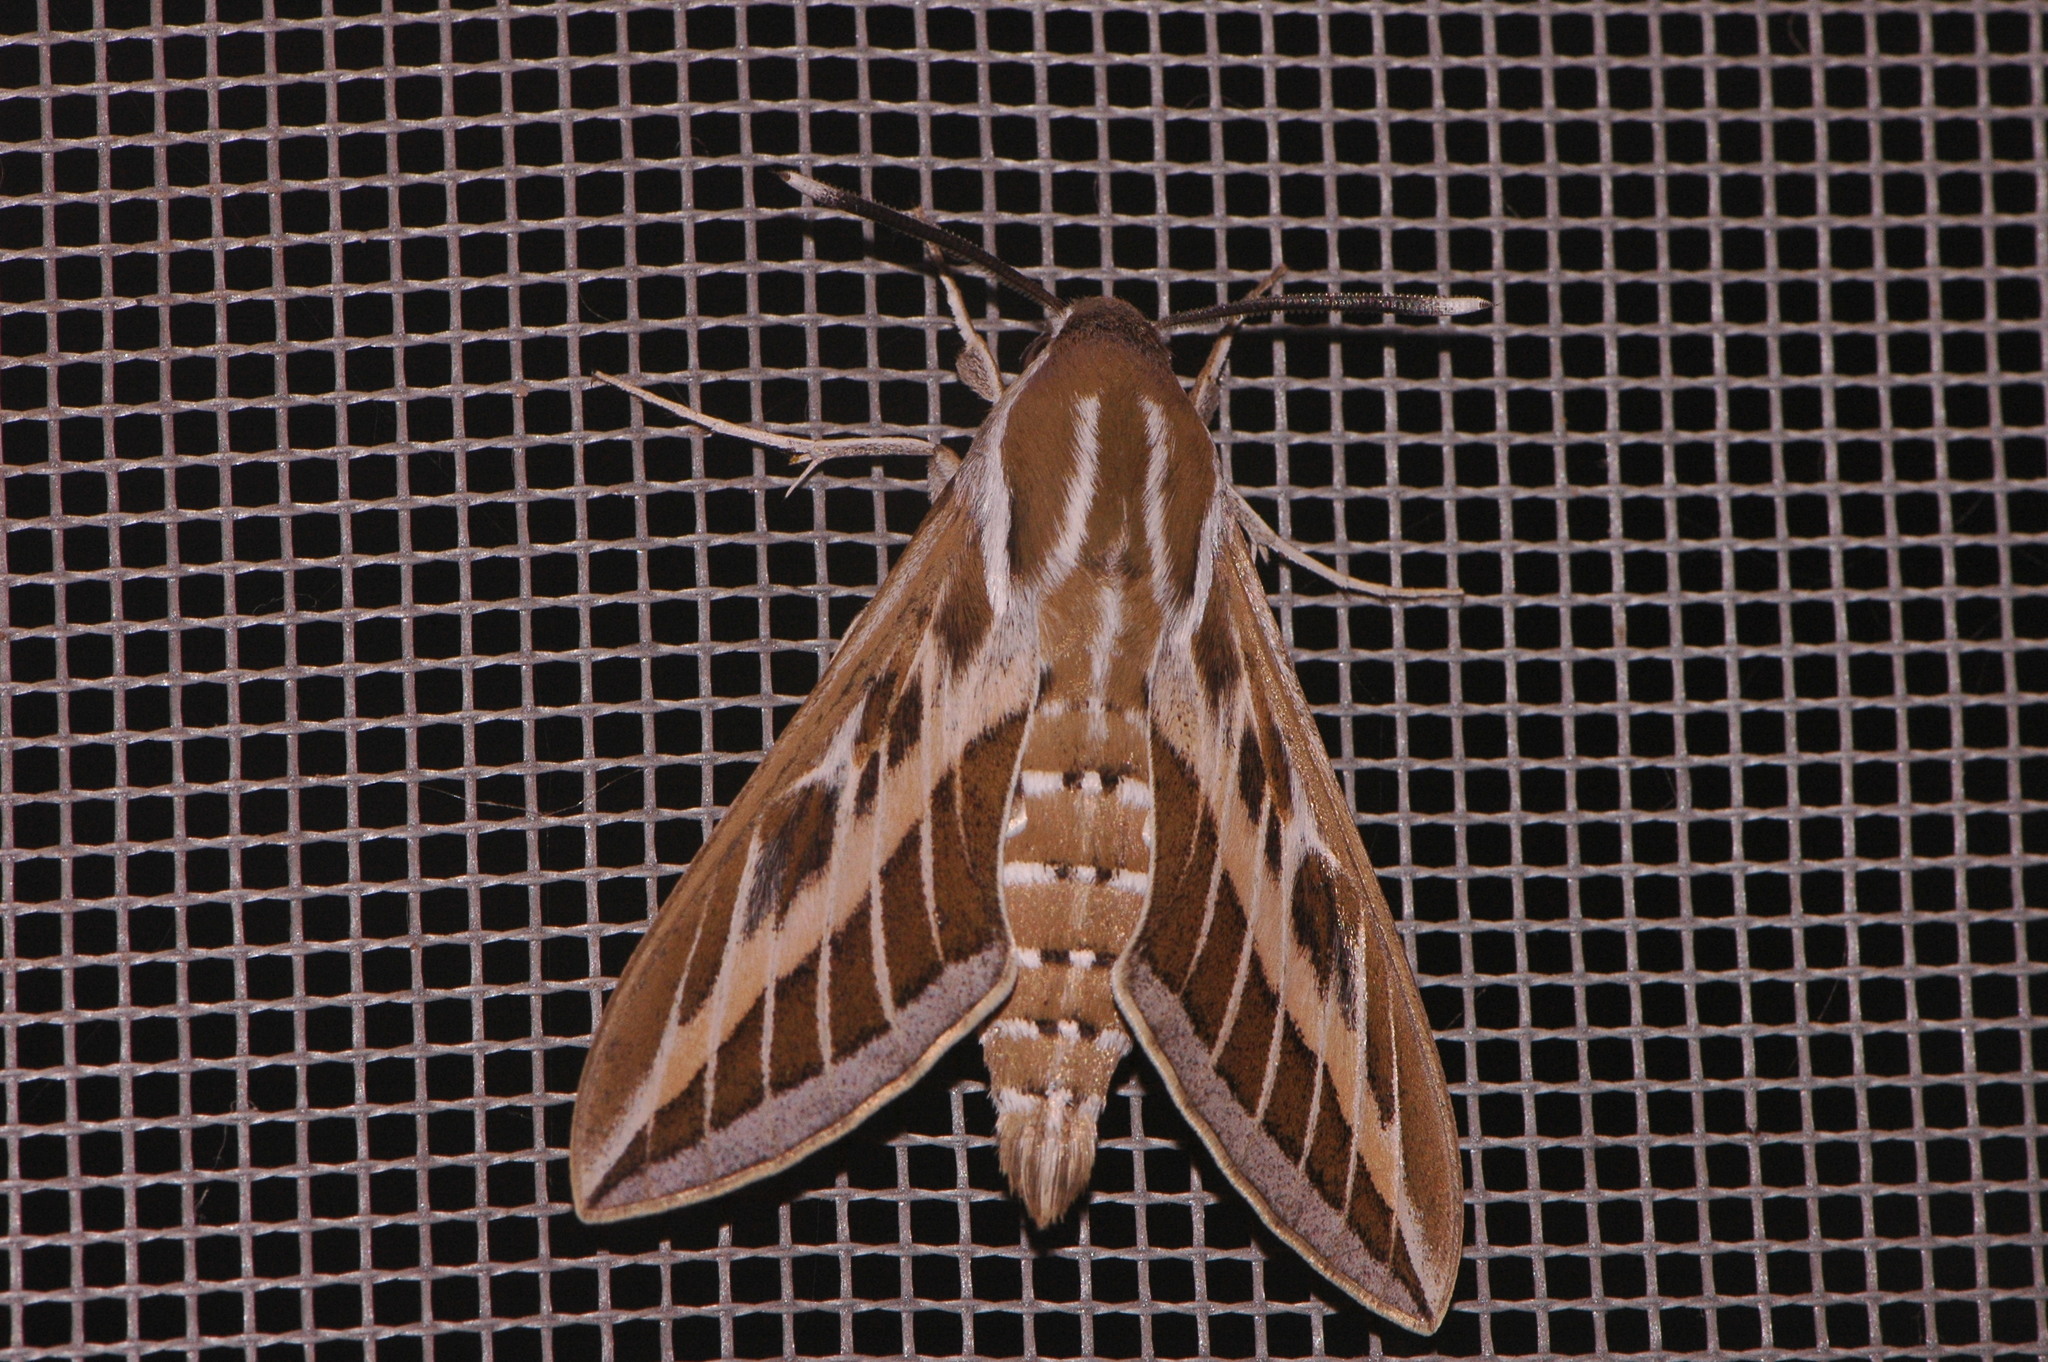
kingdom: Animalia
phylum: Arthropoda
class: Insecta
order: Lepidoptera
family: Sphingidae
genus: Hyles
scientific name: Hyles livornica
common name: Striped hawk-moth
